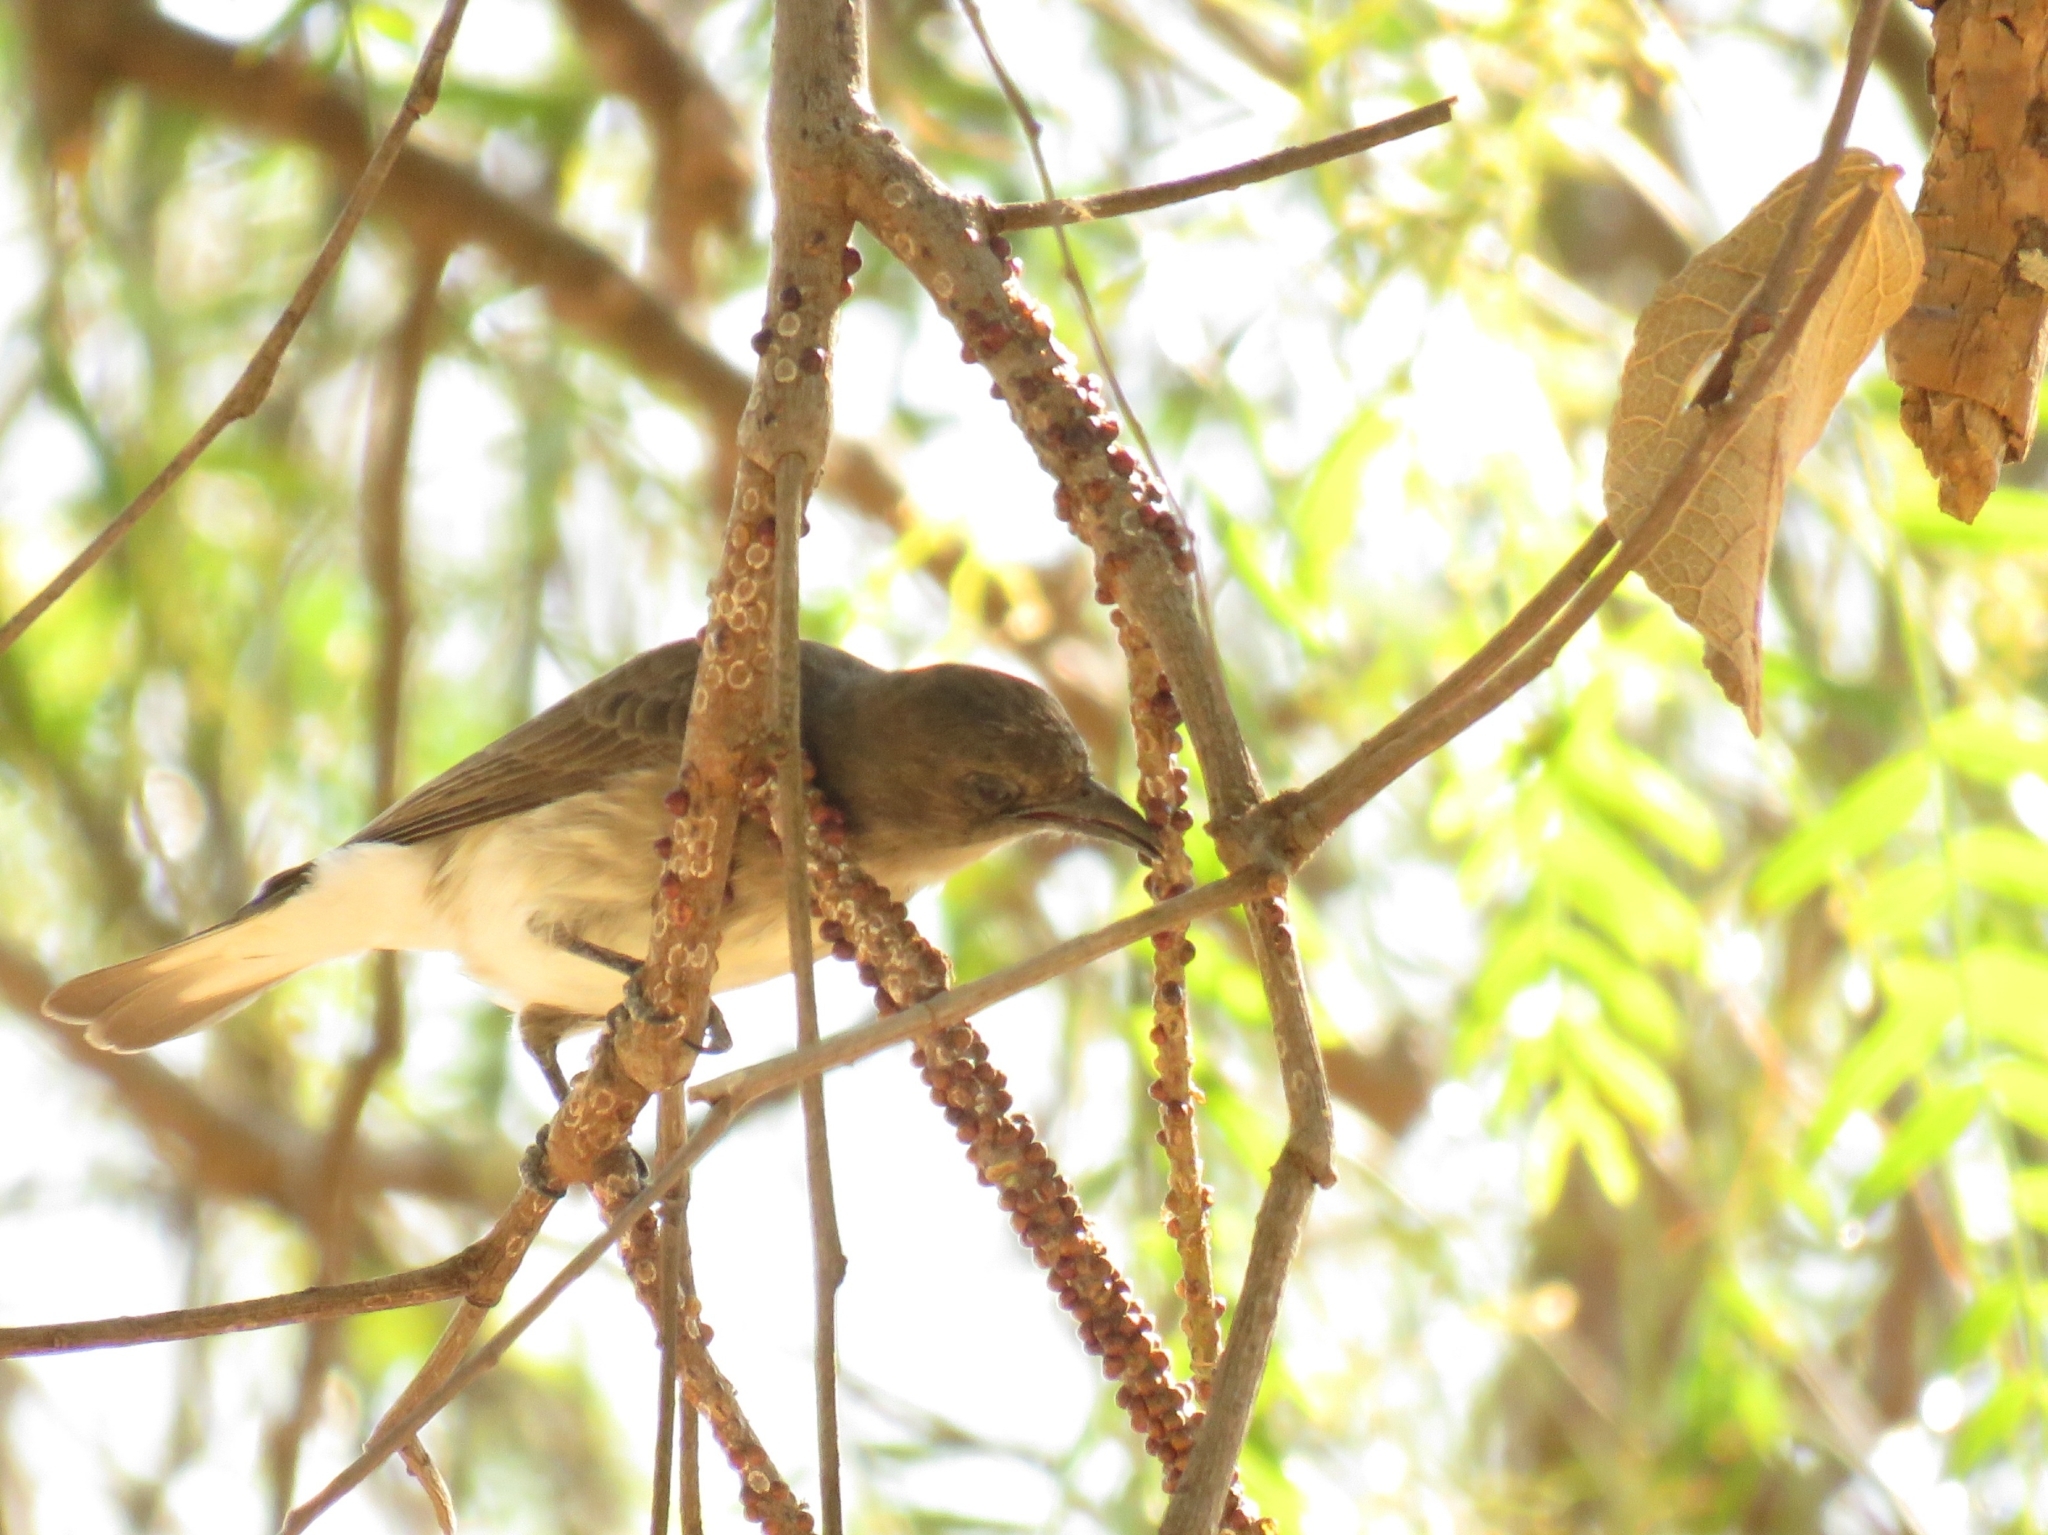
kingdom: Animalia
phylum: Chordata
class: Aves
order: Piciformes
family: Indicatoridae
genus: Prodotiscus
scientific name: Prodotiscus regulus
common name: Brown-backed honeybird
